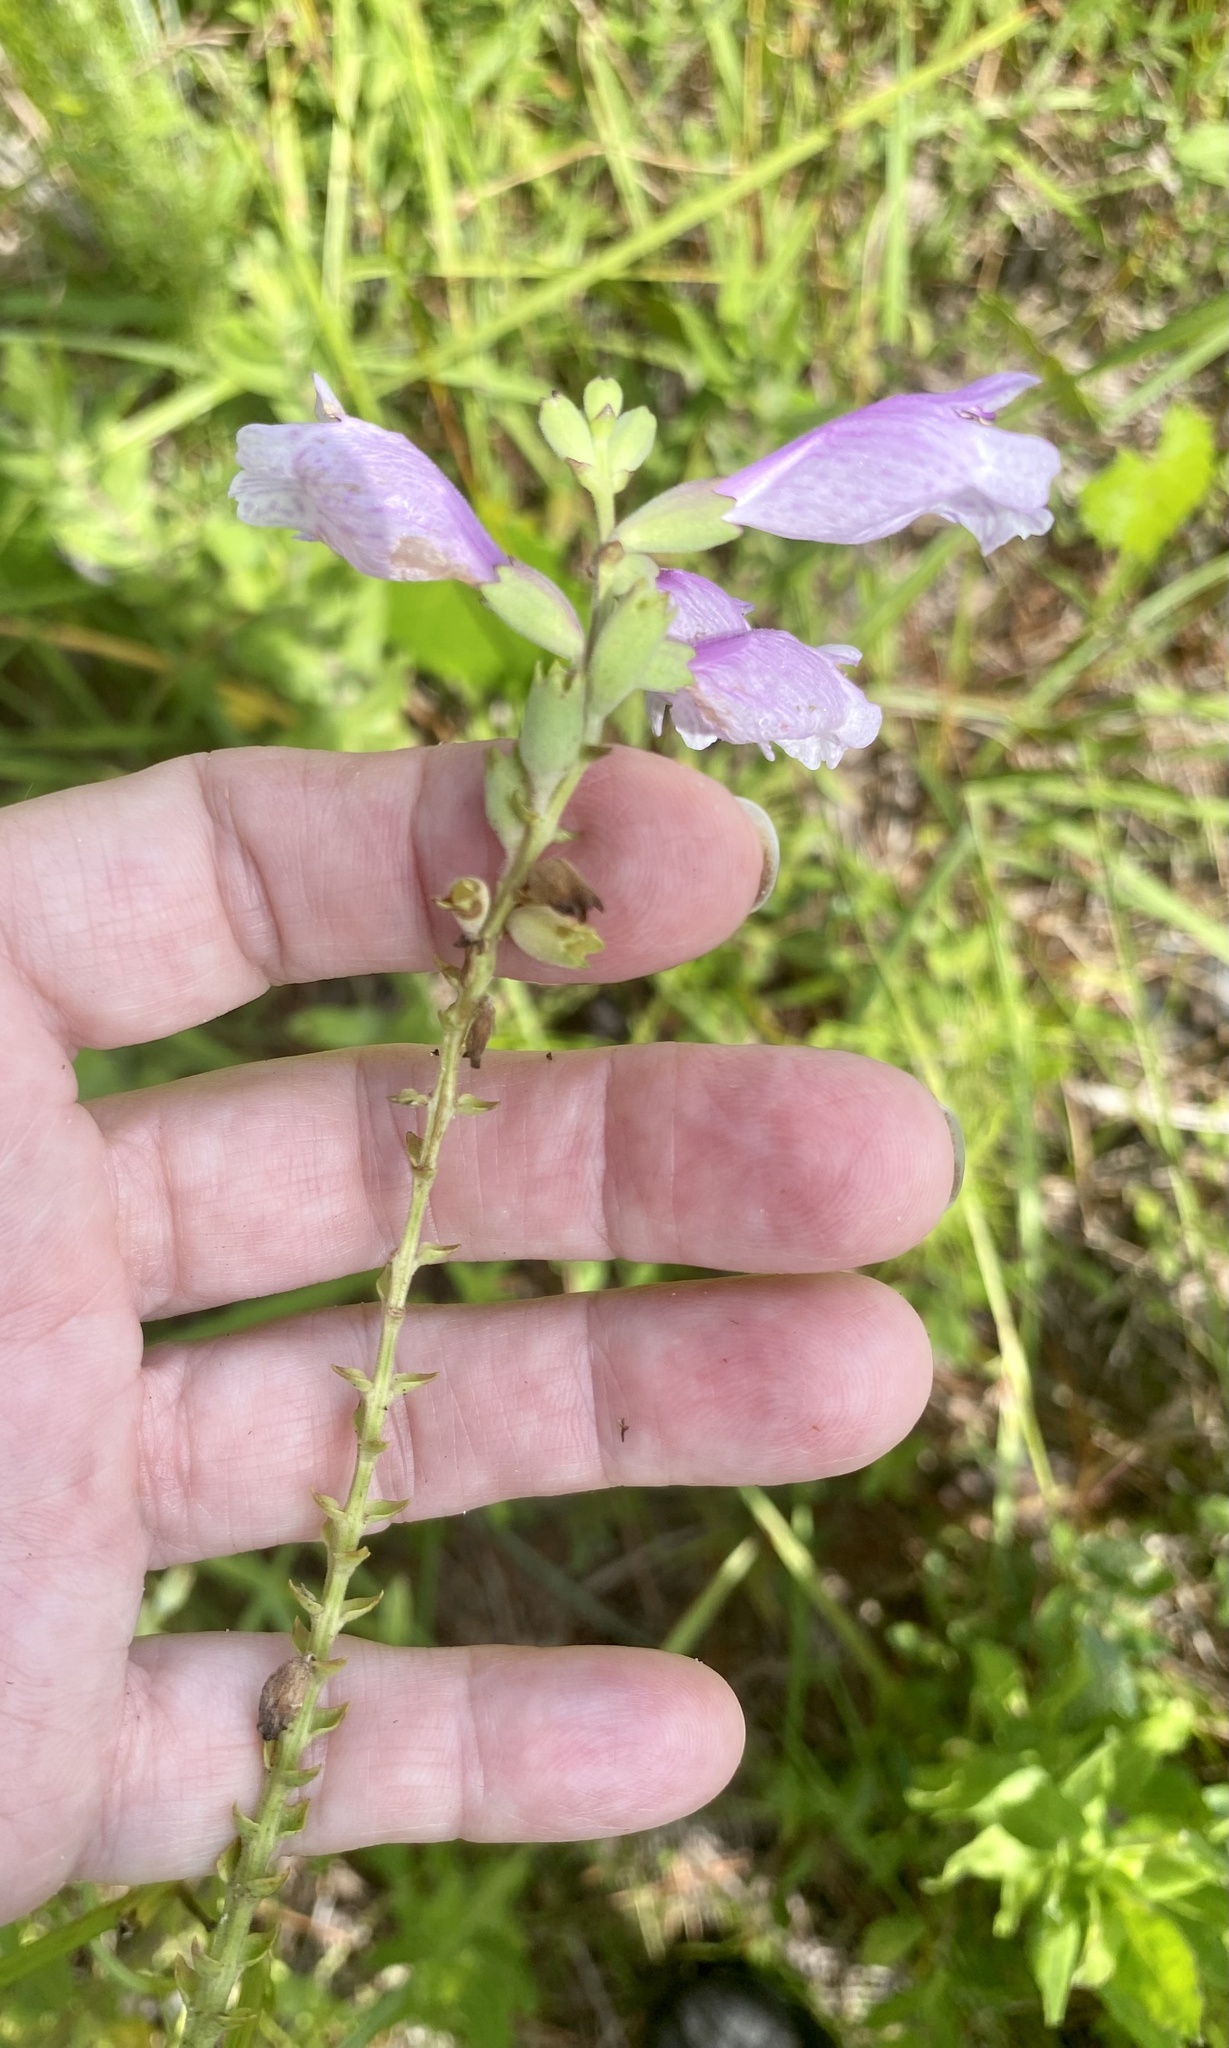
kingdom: Plantae
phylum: Tracheophyta
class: Magnoliopsida
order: Lamiales
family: Lamiaceae
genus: Physostegia
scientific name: Physostegia purpurea
